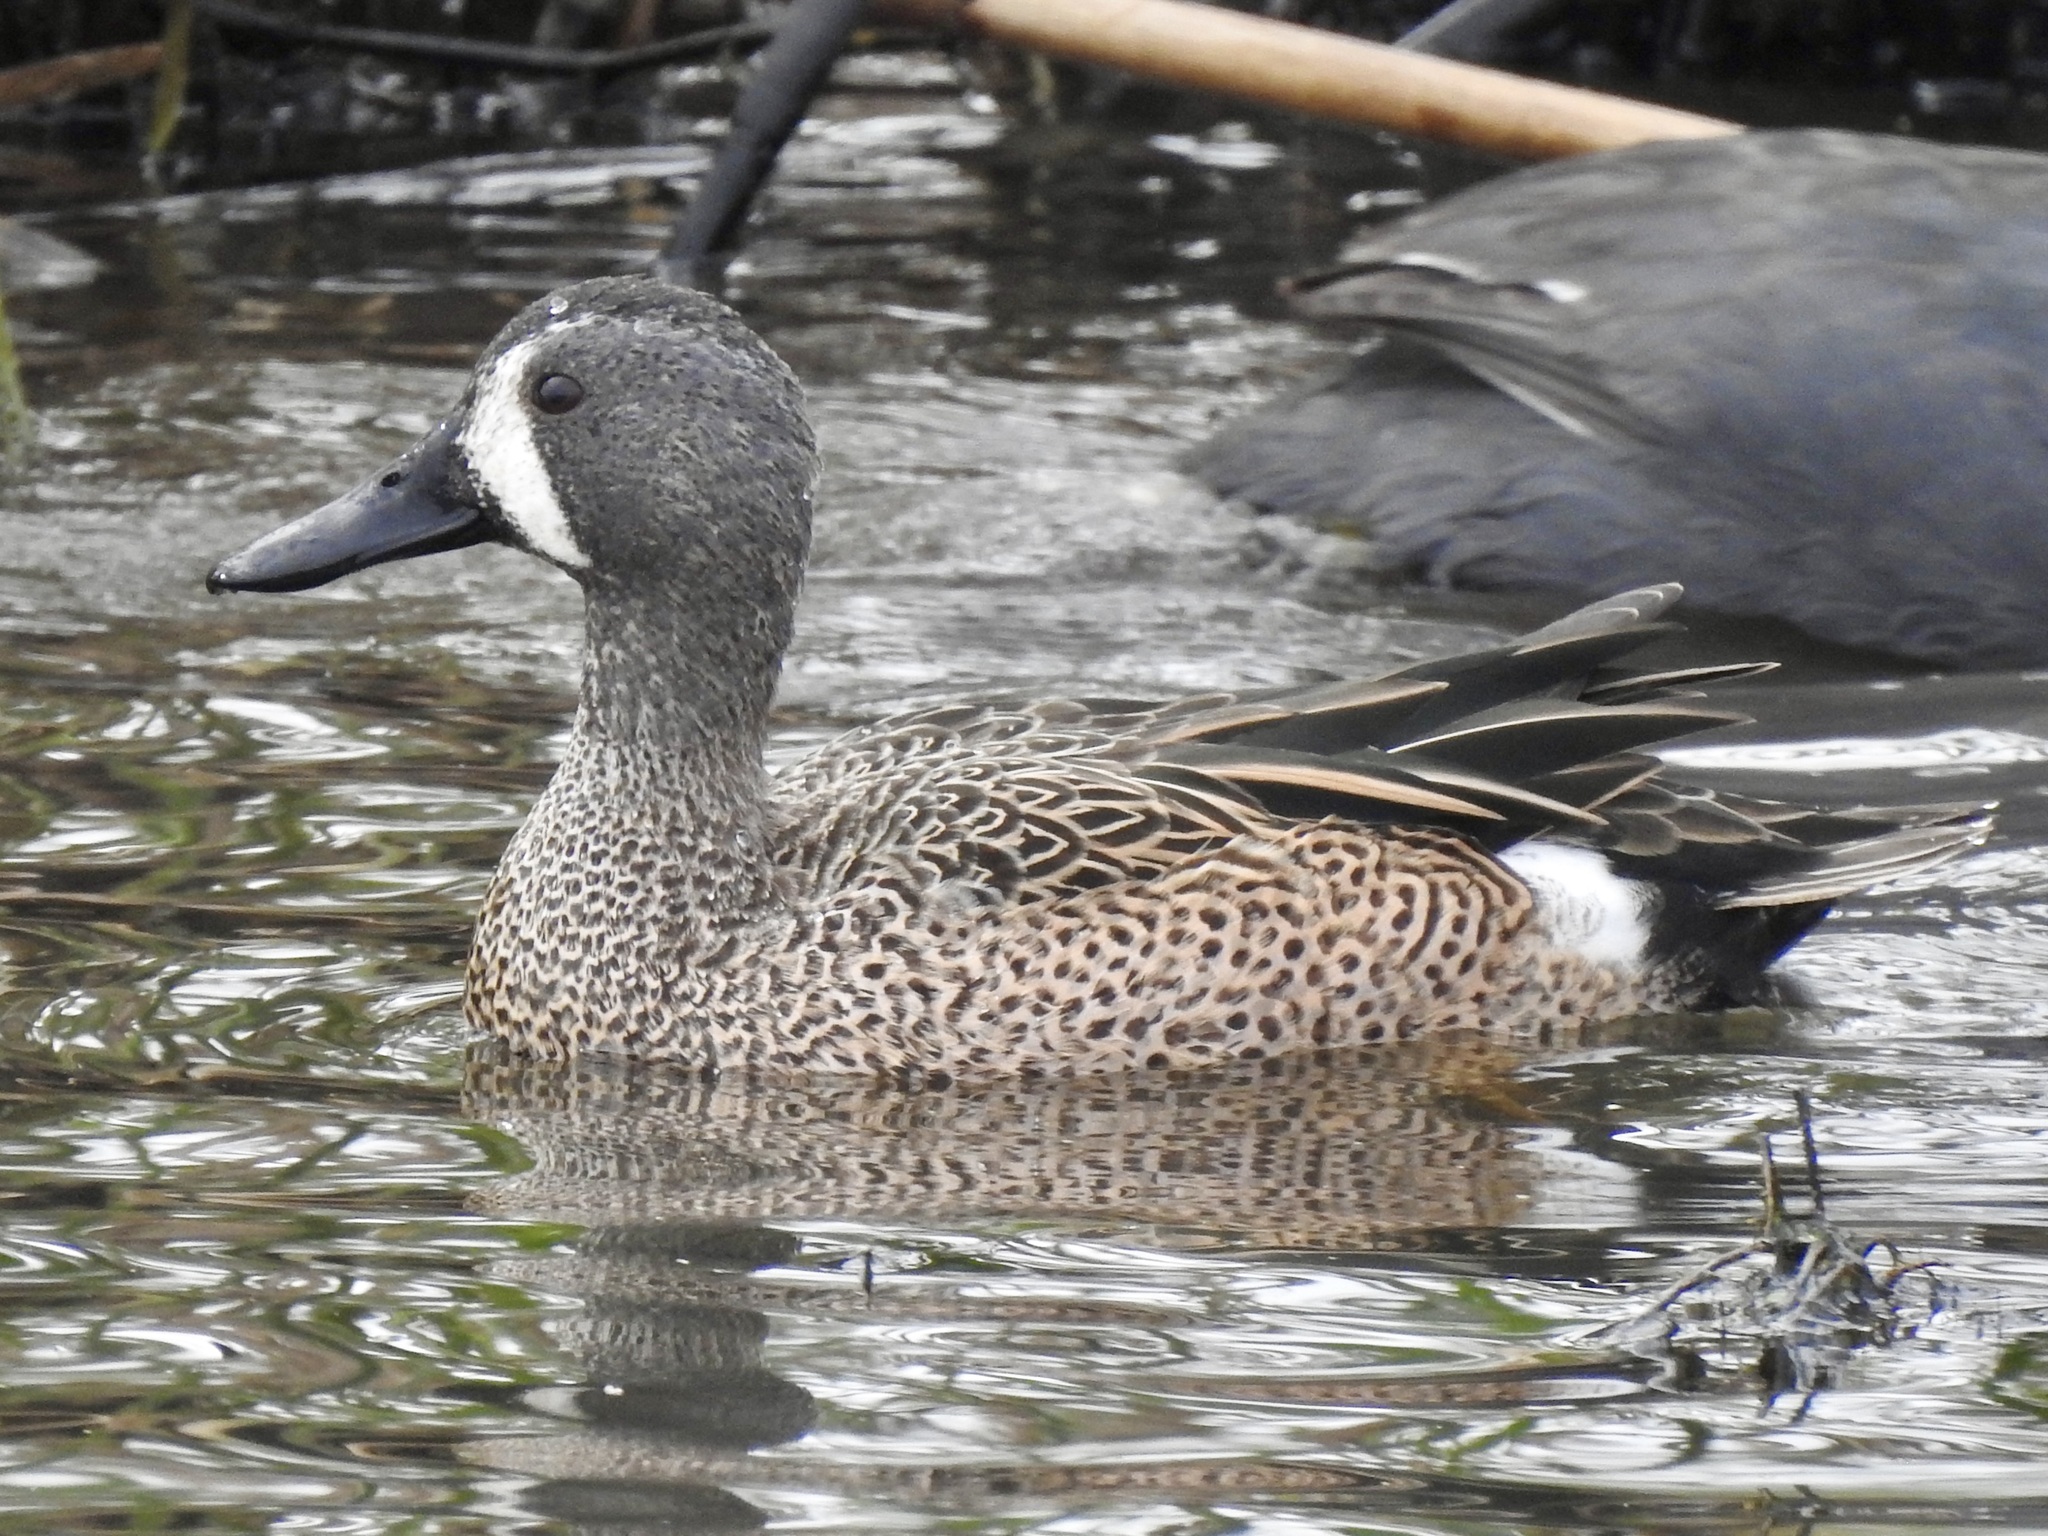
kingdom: Animalia
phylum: Chordata
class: Aves
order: Anseriformes
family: Anatidae
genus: Spatula
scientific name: Spatula discors
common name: Blue-winged teal
